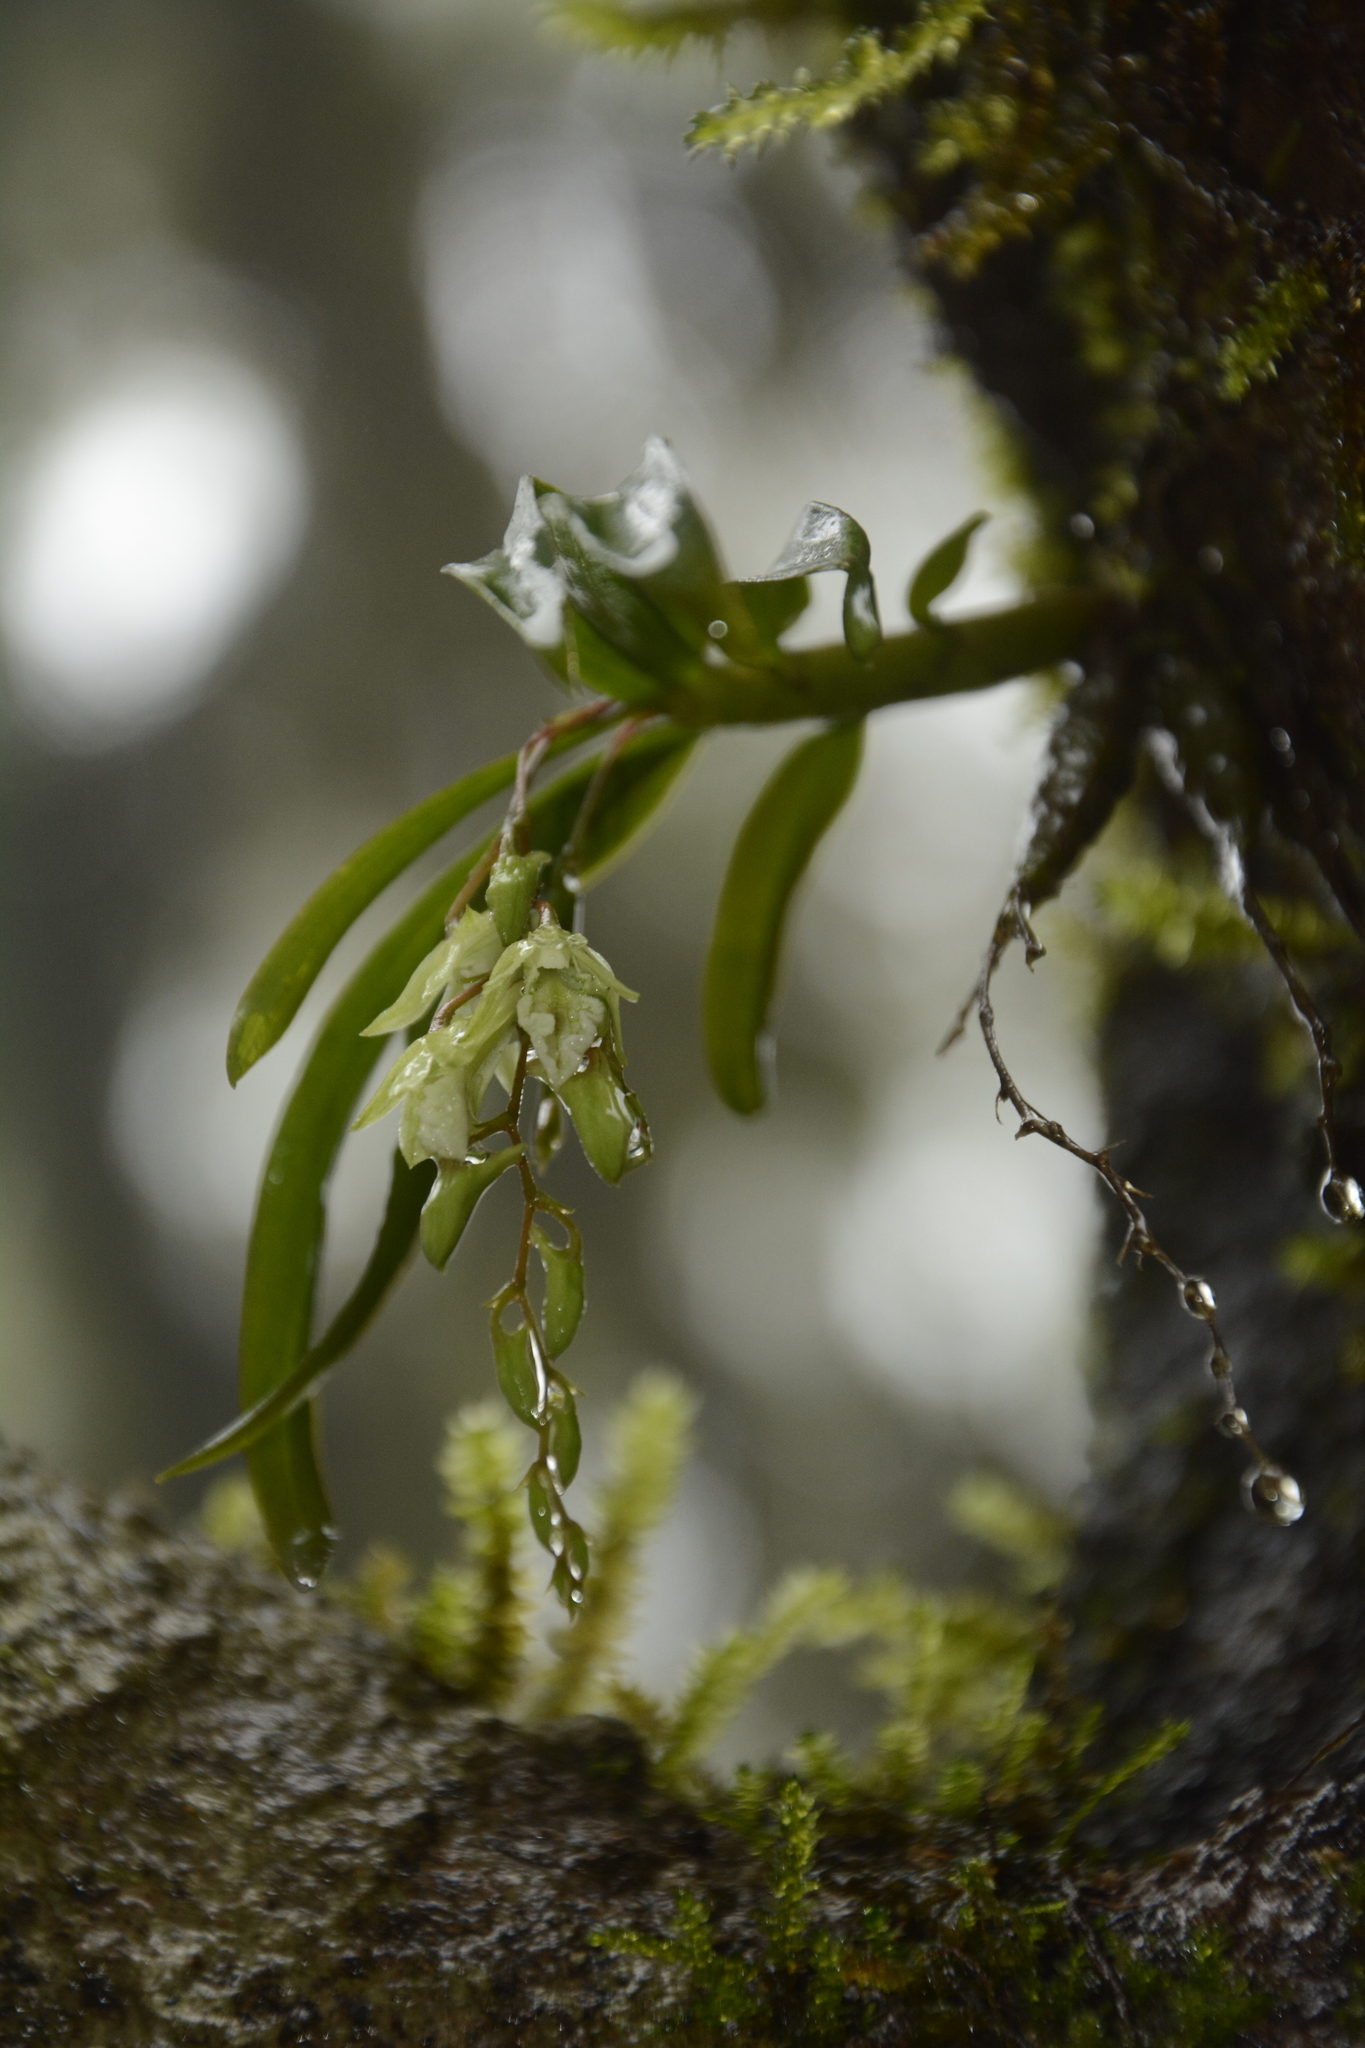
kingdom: Plantae
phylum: Tracheophyta
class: Liliopsida
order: Asparagales
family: Orchidaceae
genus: Dendrobium
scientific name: Dendrobium heyneanum
